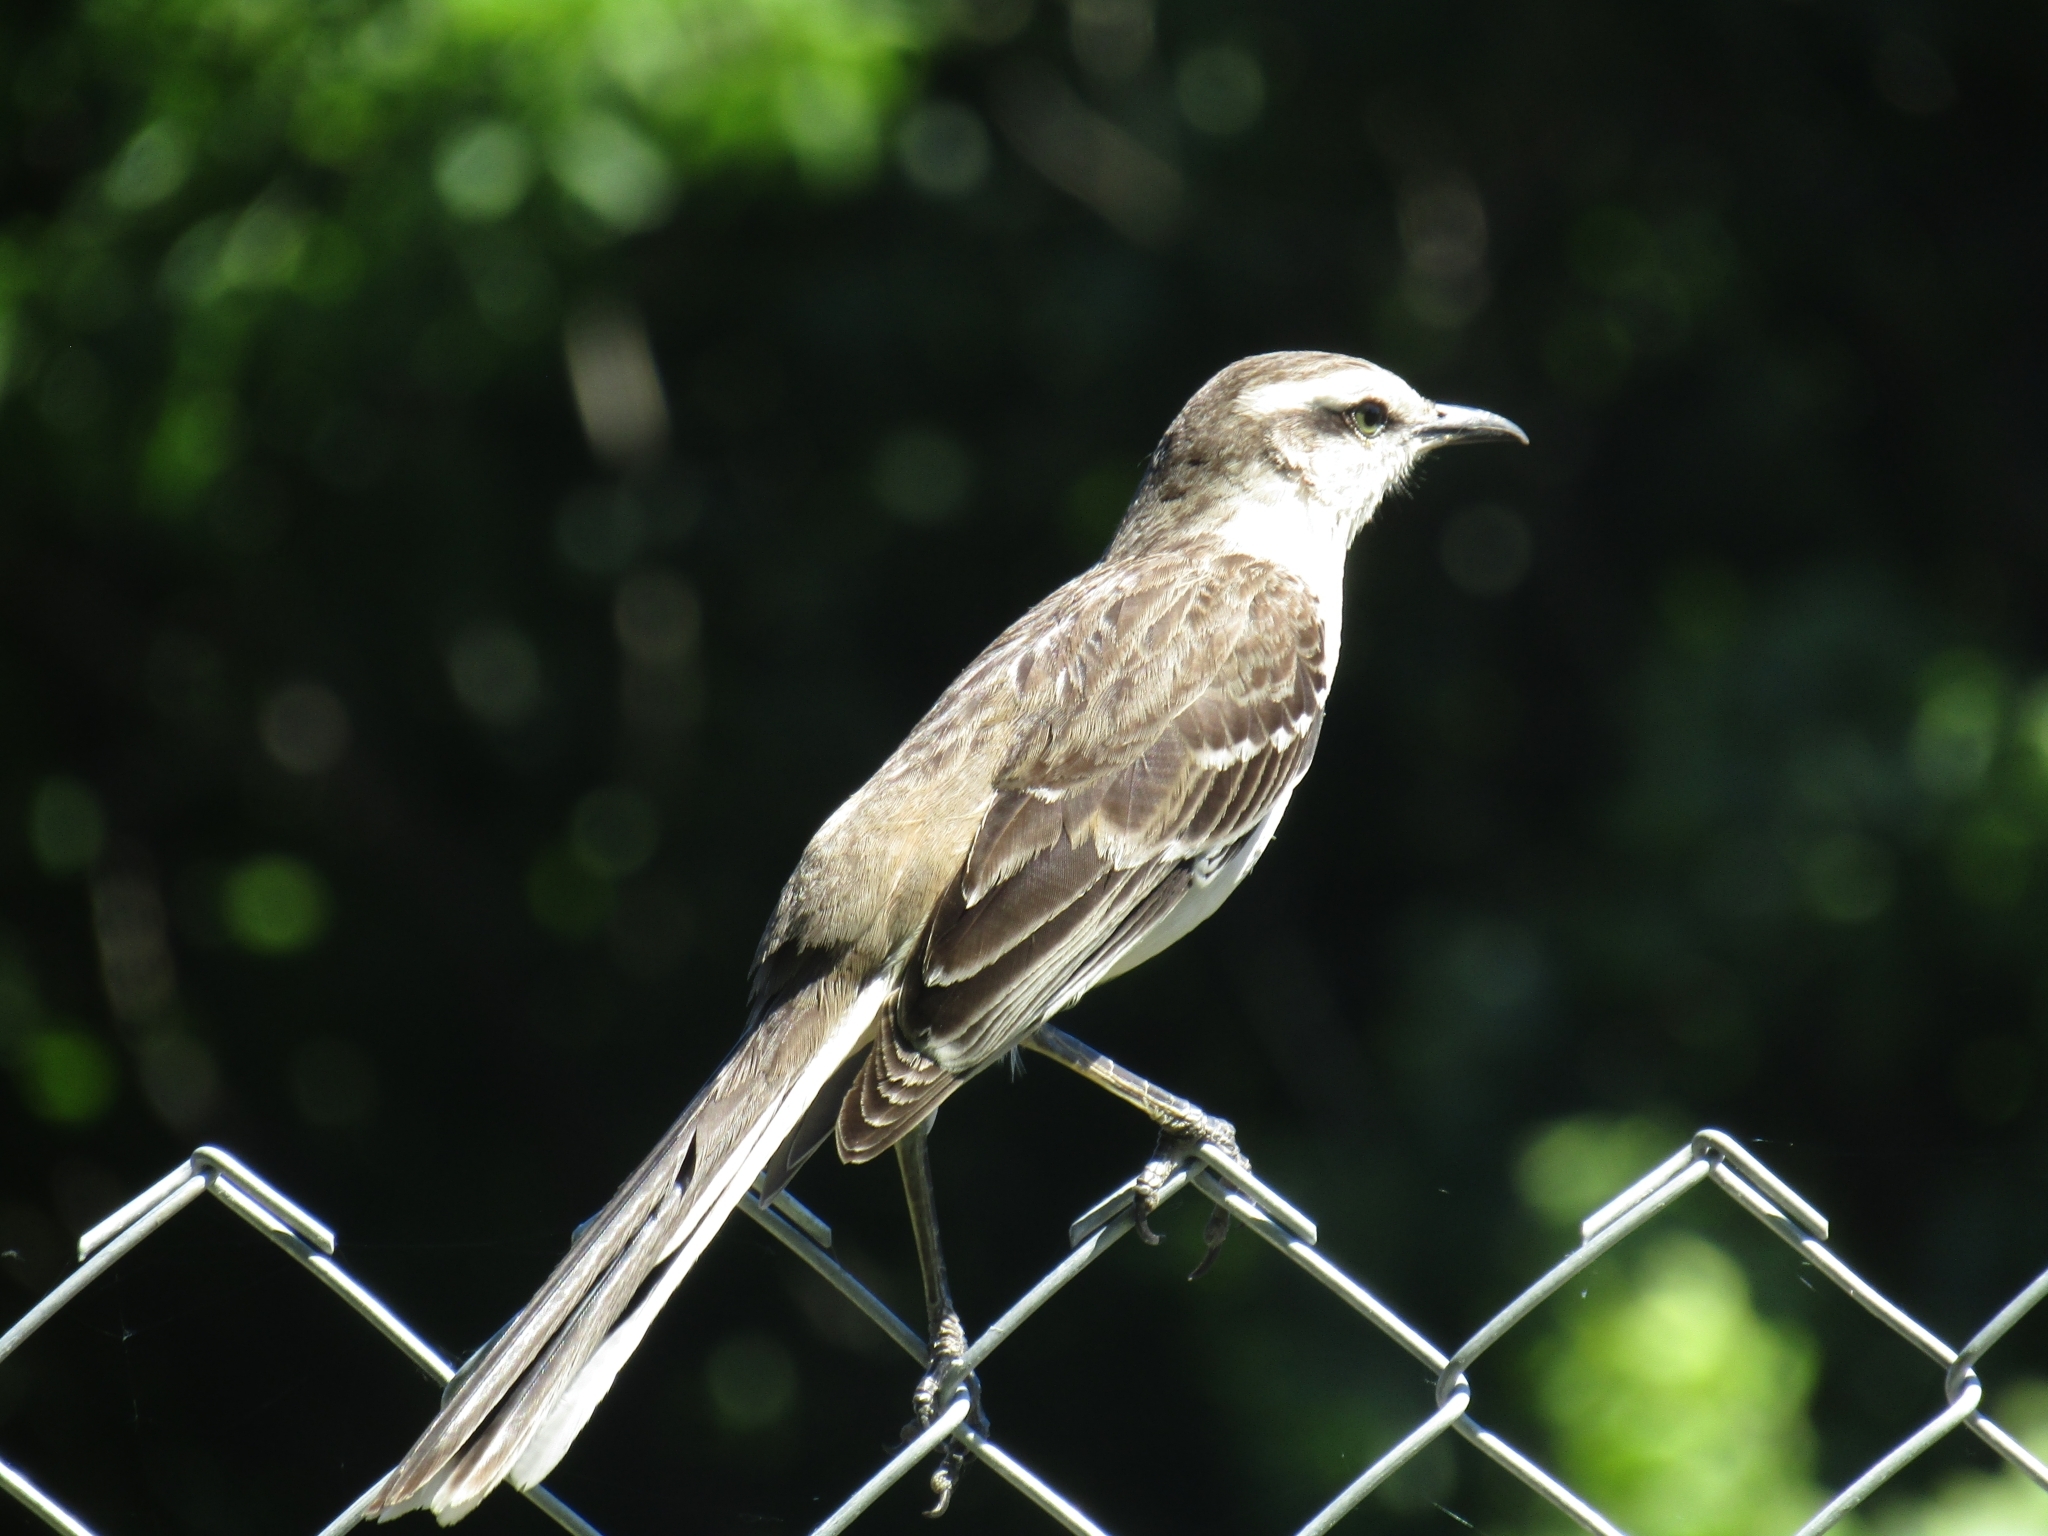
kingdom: Animalia
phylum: Chordata
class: Aves
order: Passeriformes
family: Mimidae
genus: Mimus
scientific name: Mimus saturninus
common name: Chalk-browed mockingbird
